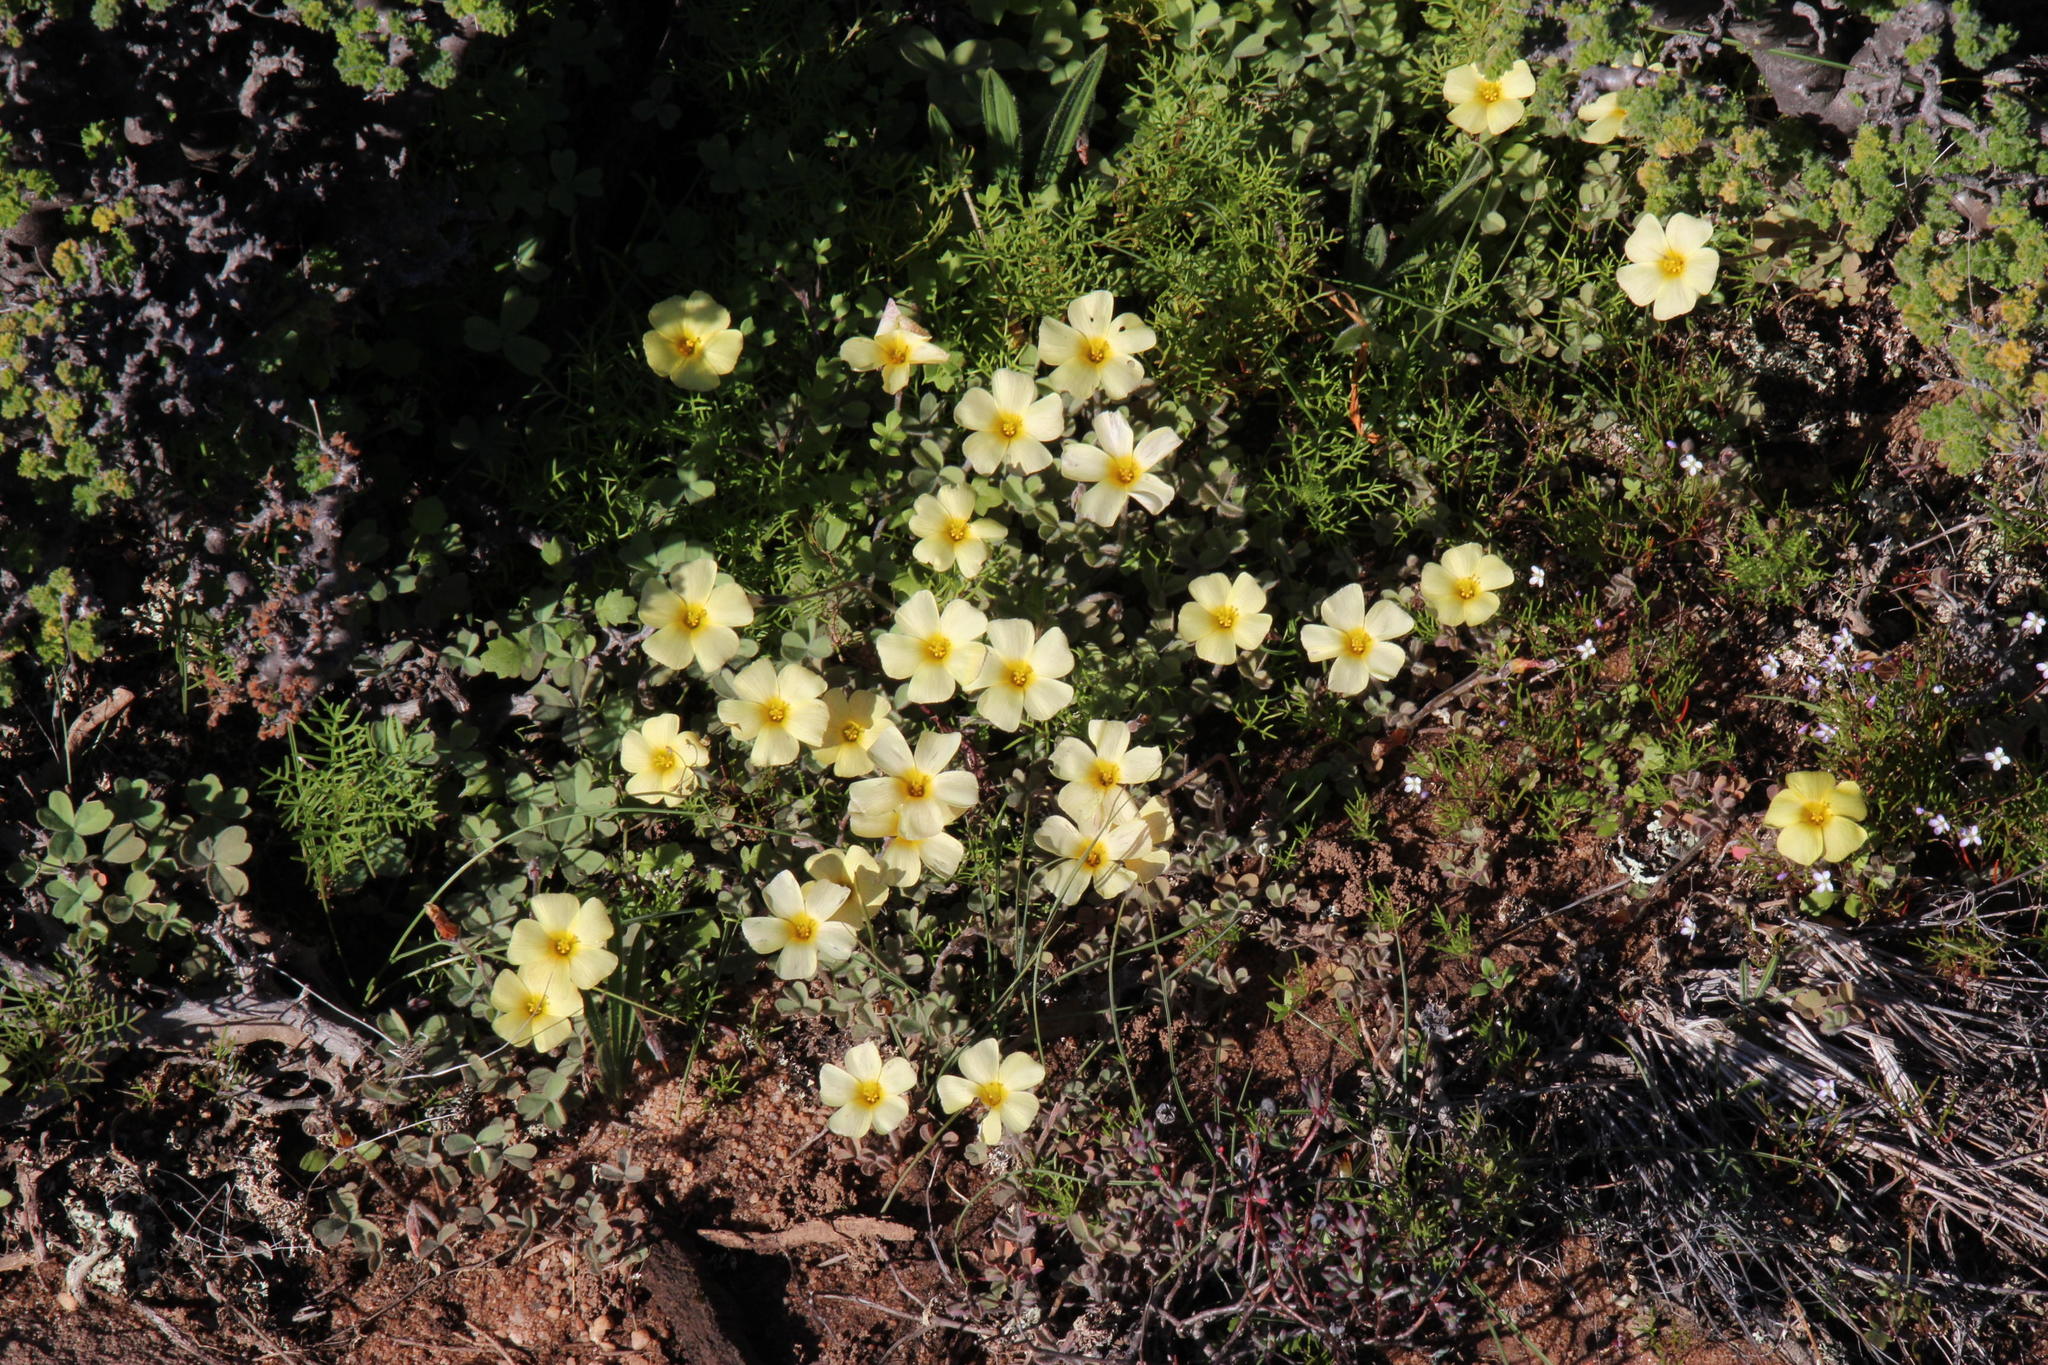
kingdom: Plantae
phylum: Tracheophyta
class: Magnoliopsida
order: Oxalidales
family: Oxalidaceae
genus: Oxalis
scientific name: Oxalis obtusa
